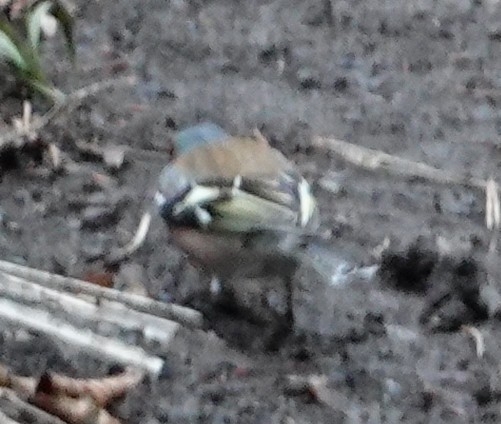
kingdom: Animalia
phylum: Chordata
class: Aves
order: Passeriformes
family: Fringillidae
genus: Fringilla
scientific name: Fringilla coelebs
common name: Common chaffinch
